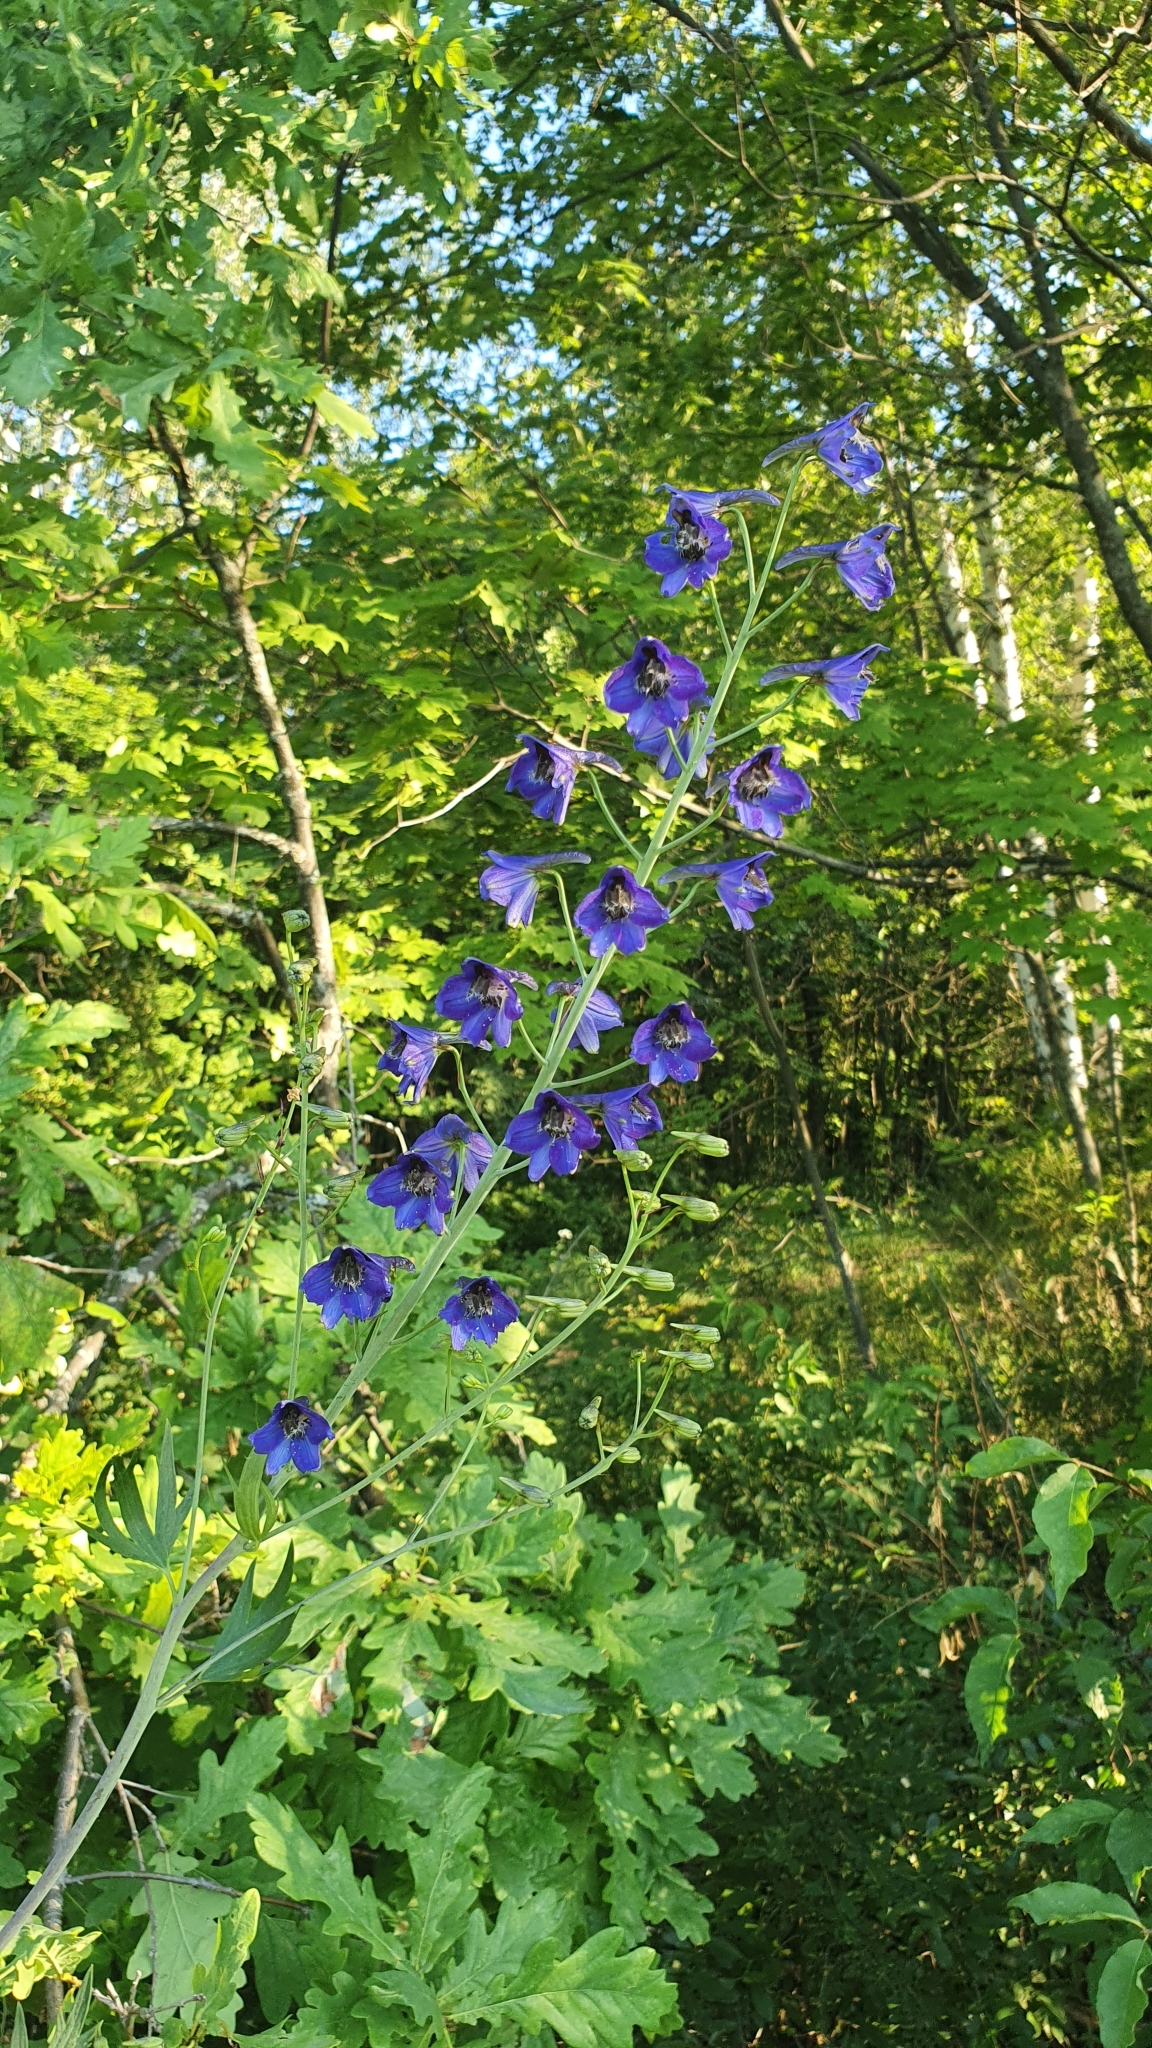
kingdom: Plantae
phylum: Tracheophyta
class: Magnoliopsida
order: Ranunculales
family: Ranunculaceae
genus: Delphinium
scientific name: Delphinium elatum
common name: Candle larkspur
